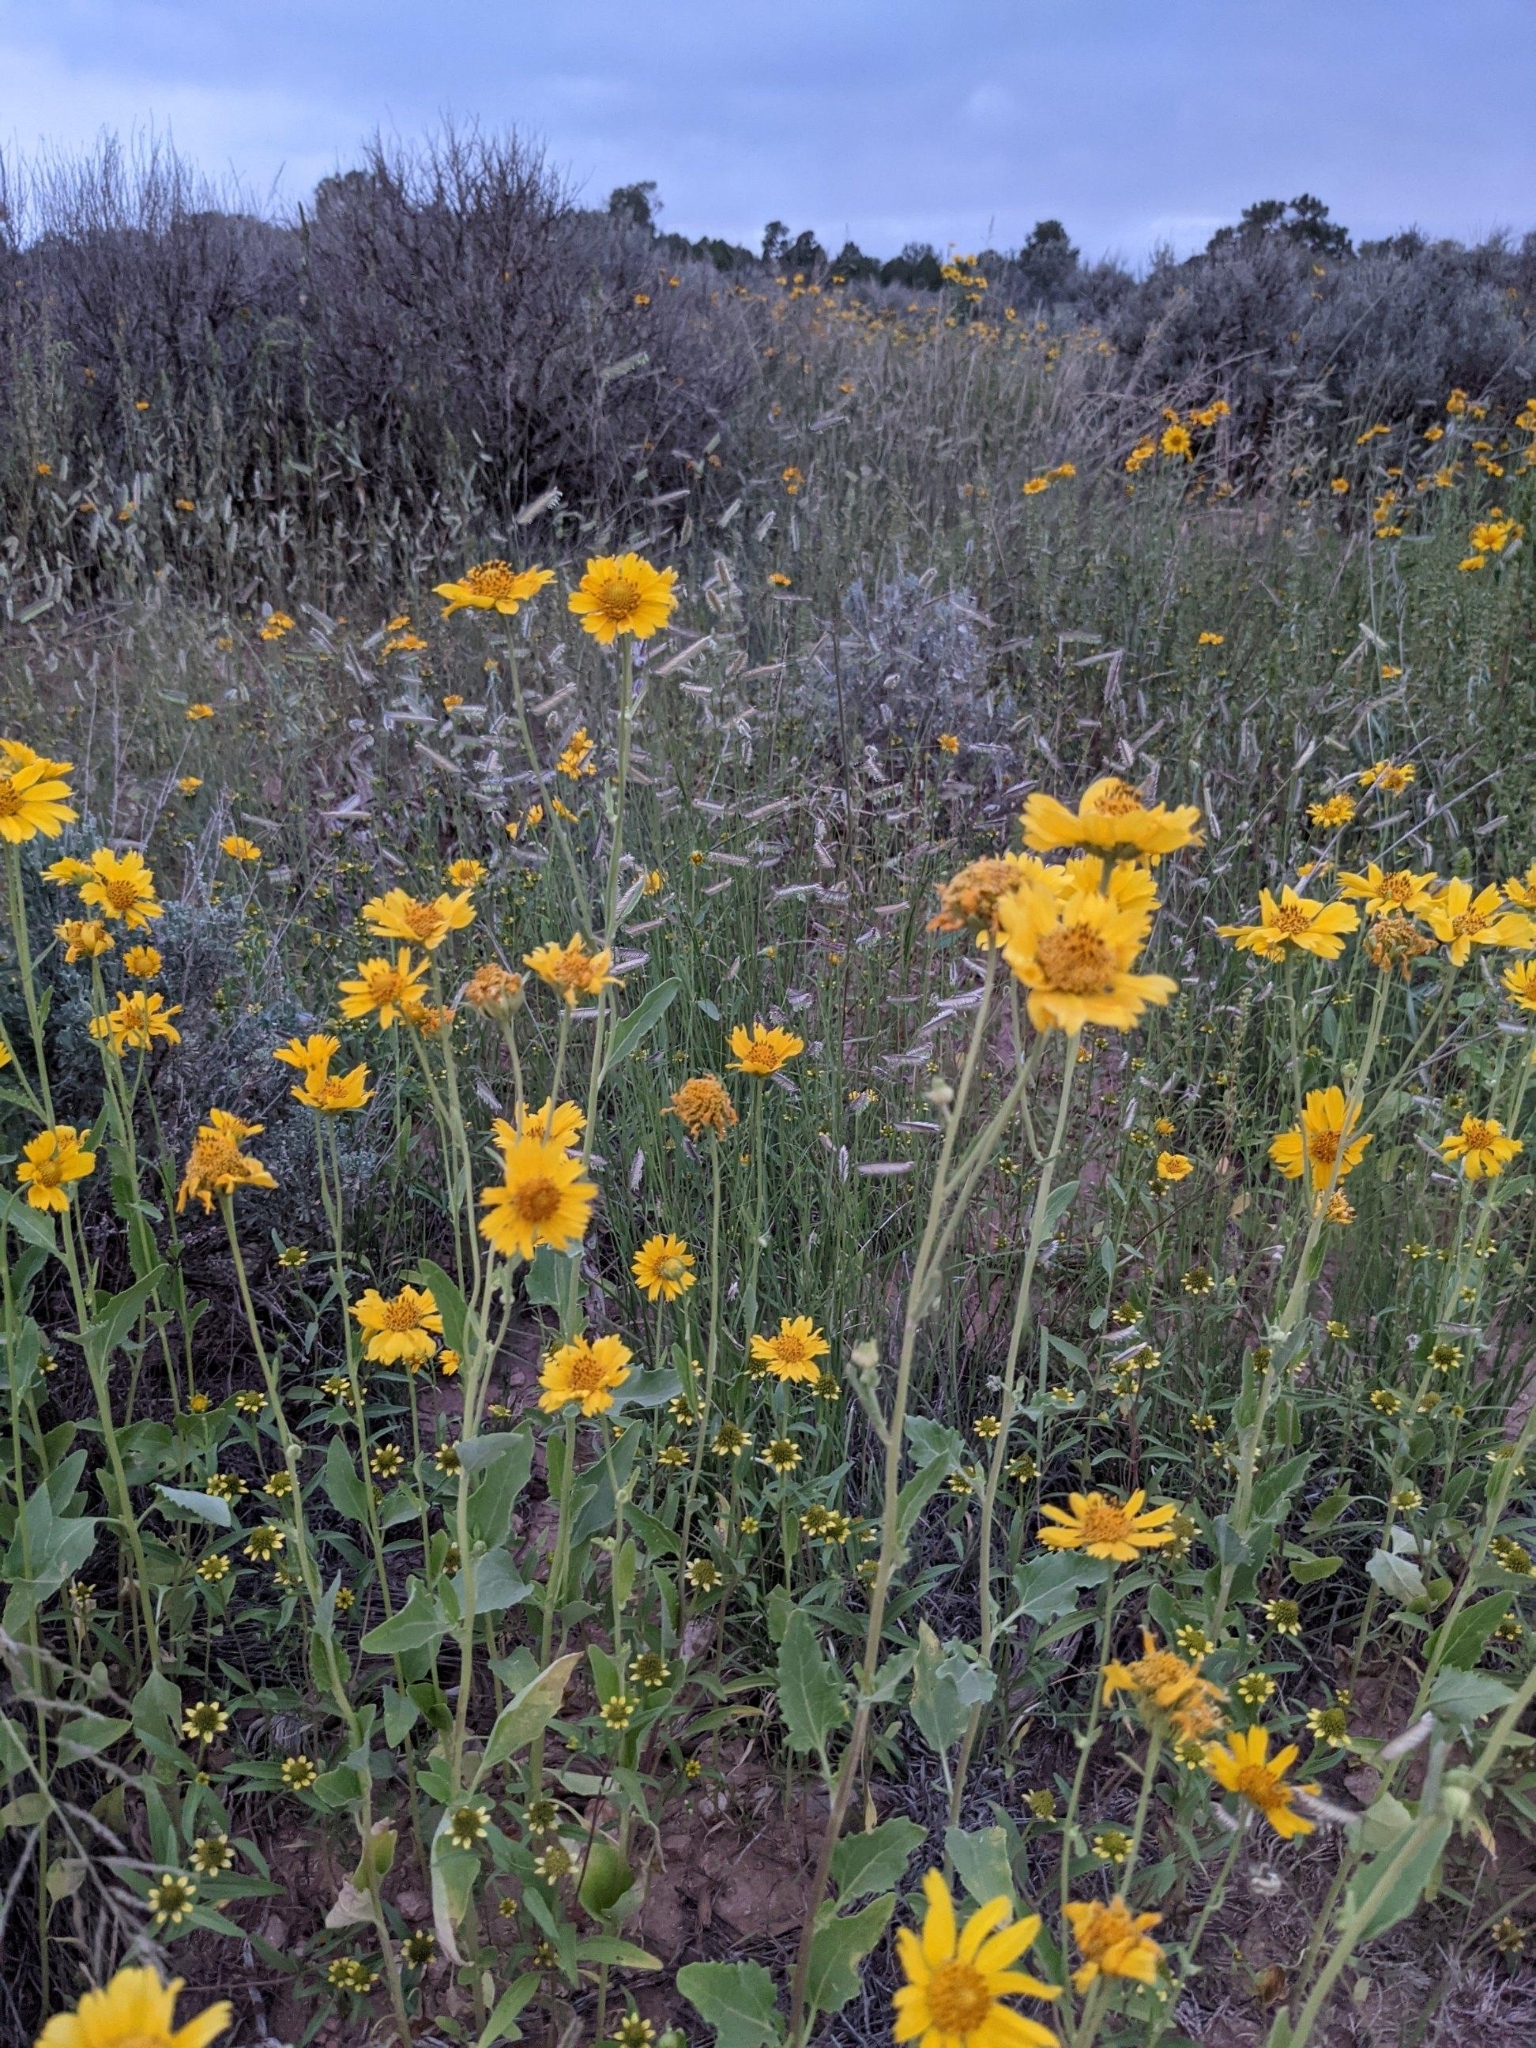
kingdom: Plantae
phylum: Tracheophyta
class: Magnoliopsida
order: Asterales
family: Asteraceae
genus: Verbesina
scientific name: Verbesina encelioides
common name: Golden crownbeard
